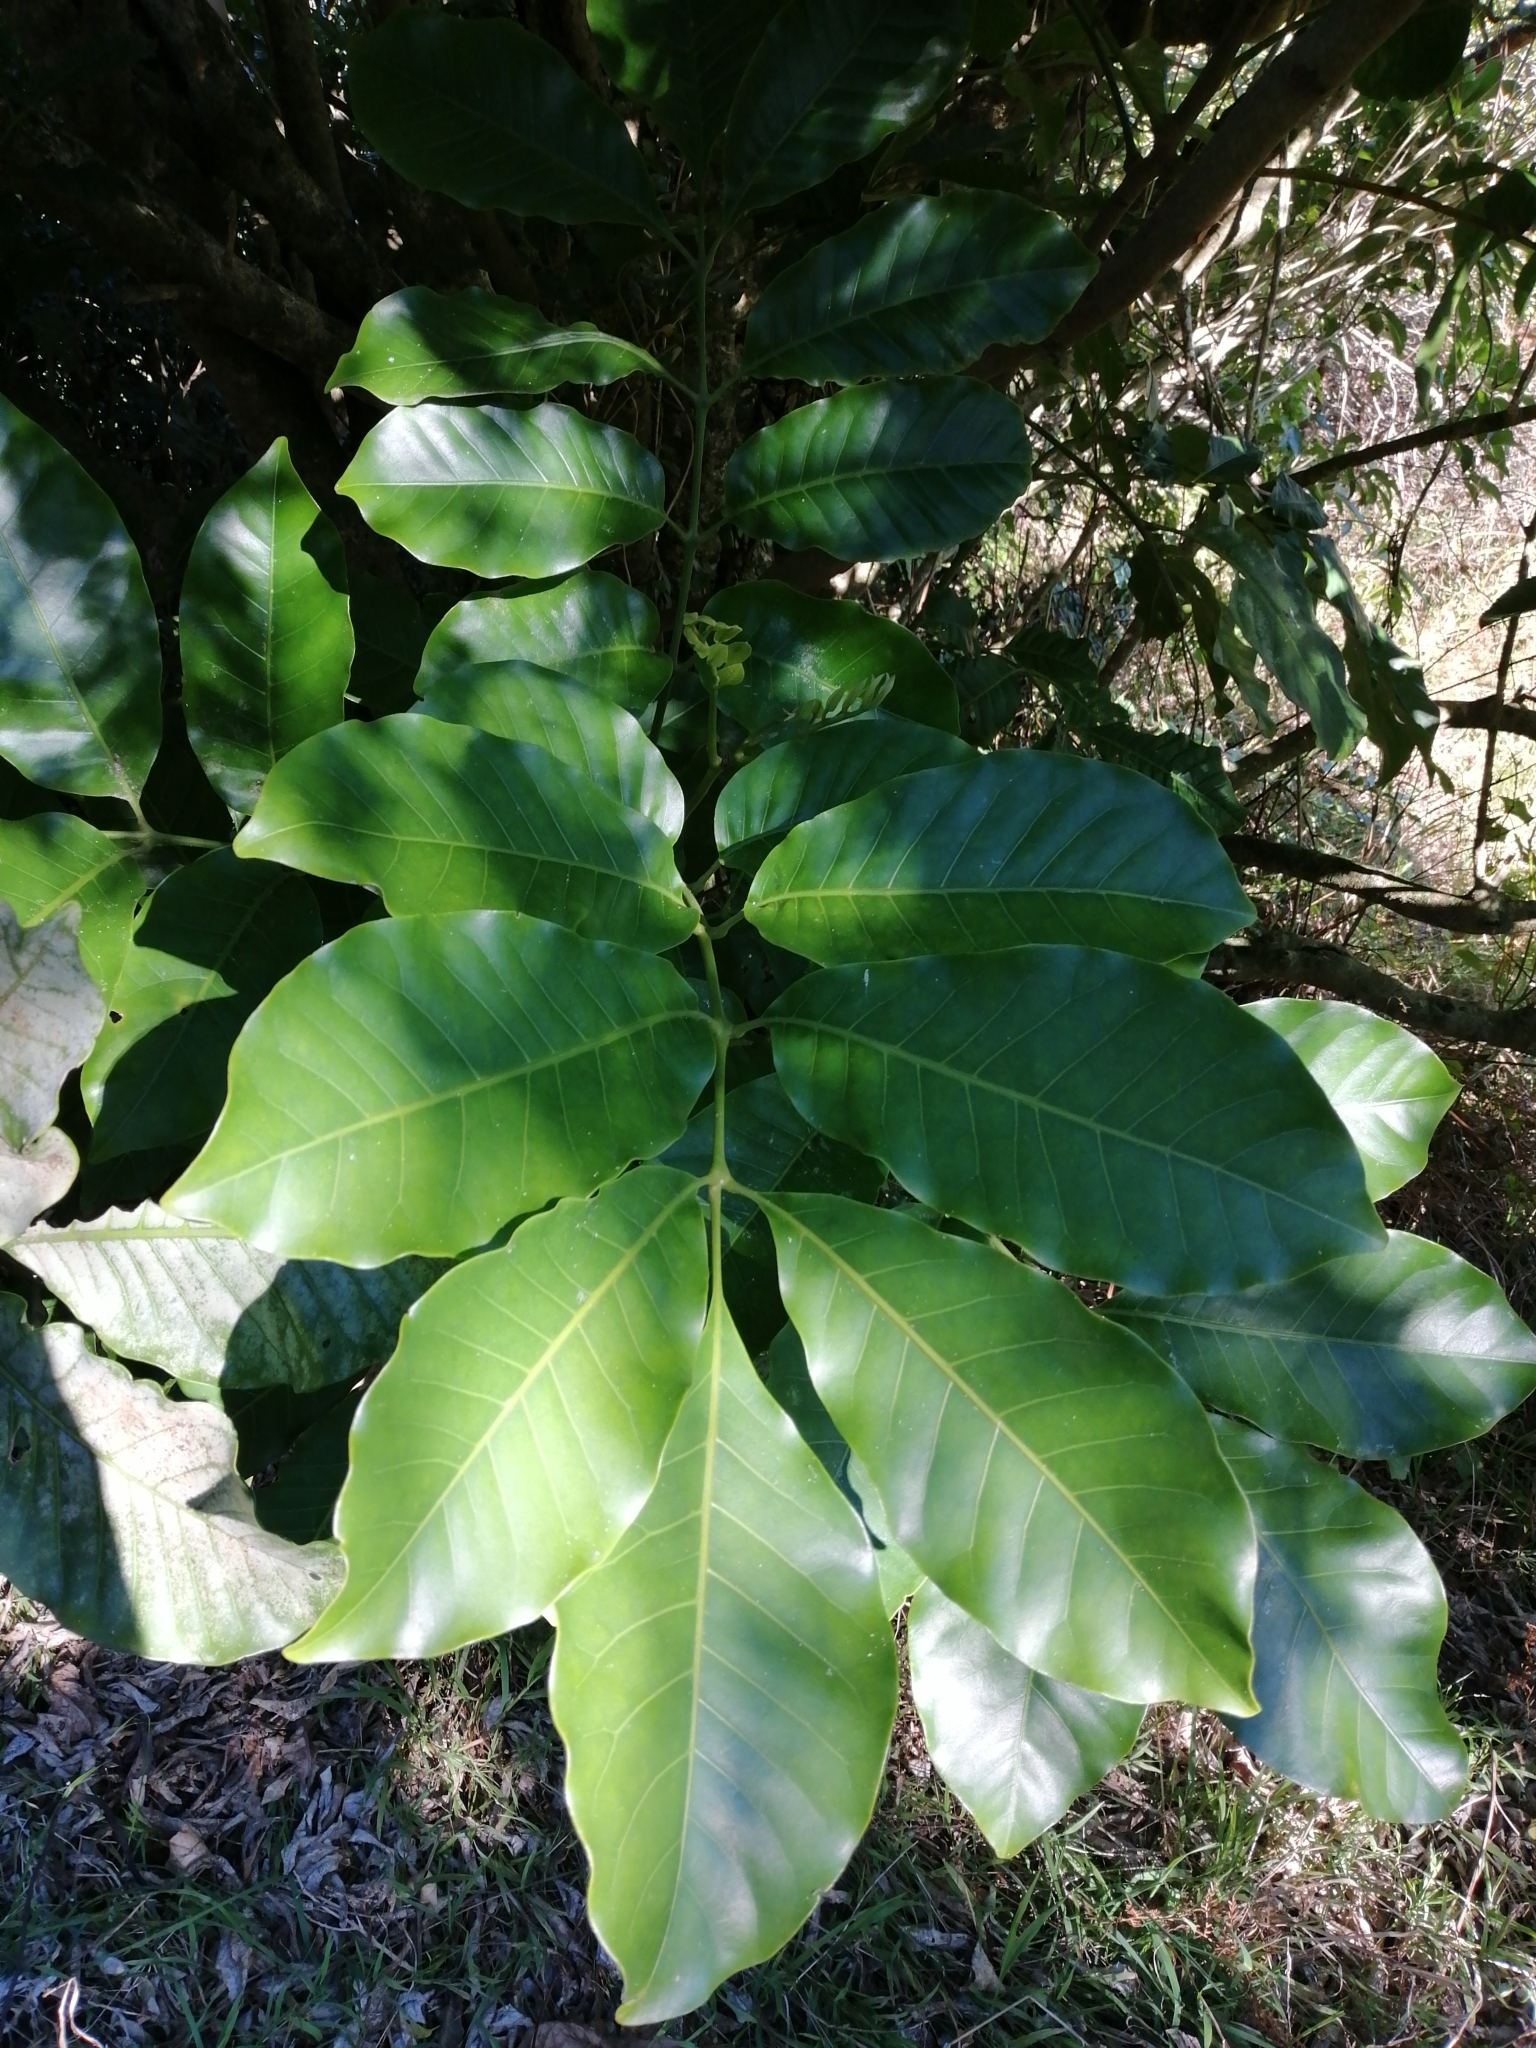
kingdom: Plantae
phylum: Tracheophyta
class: Magnoliopsida
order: Sapindales
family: Meliaceae
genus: Didymocheton
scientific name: Didymocheton spectabilis
